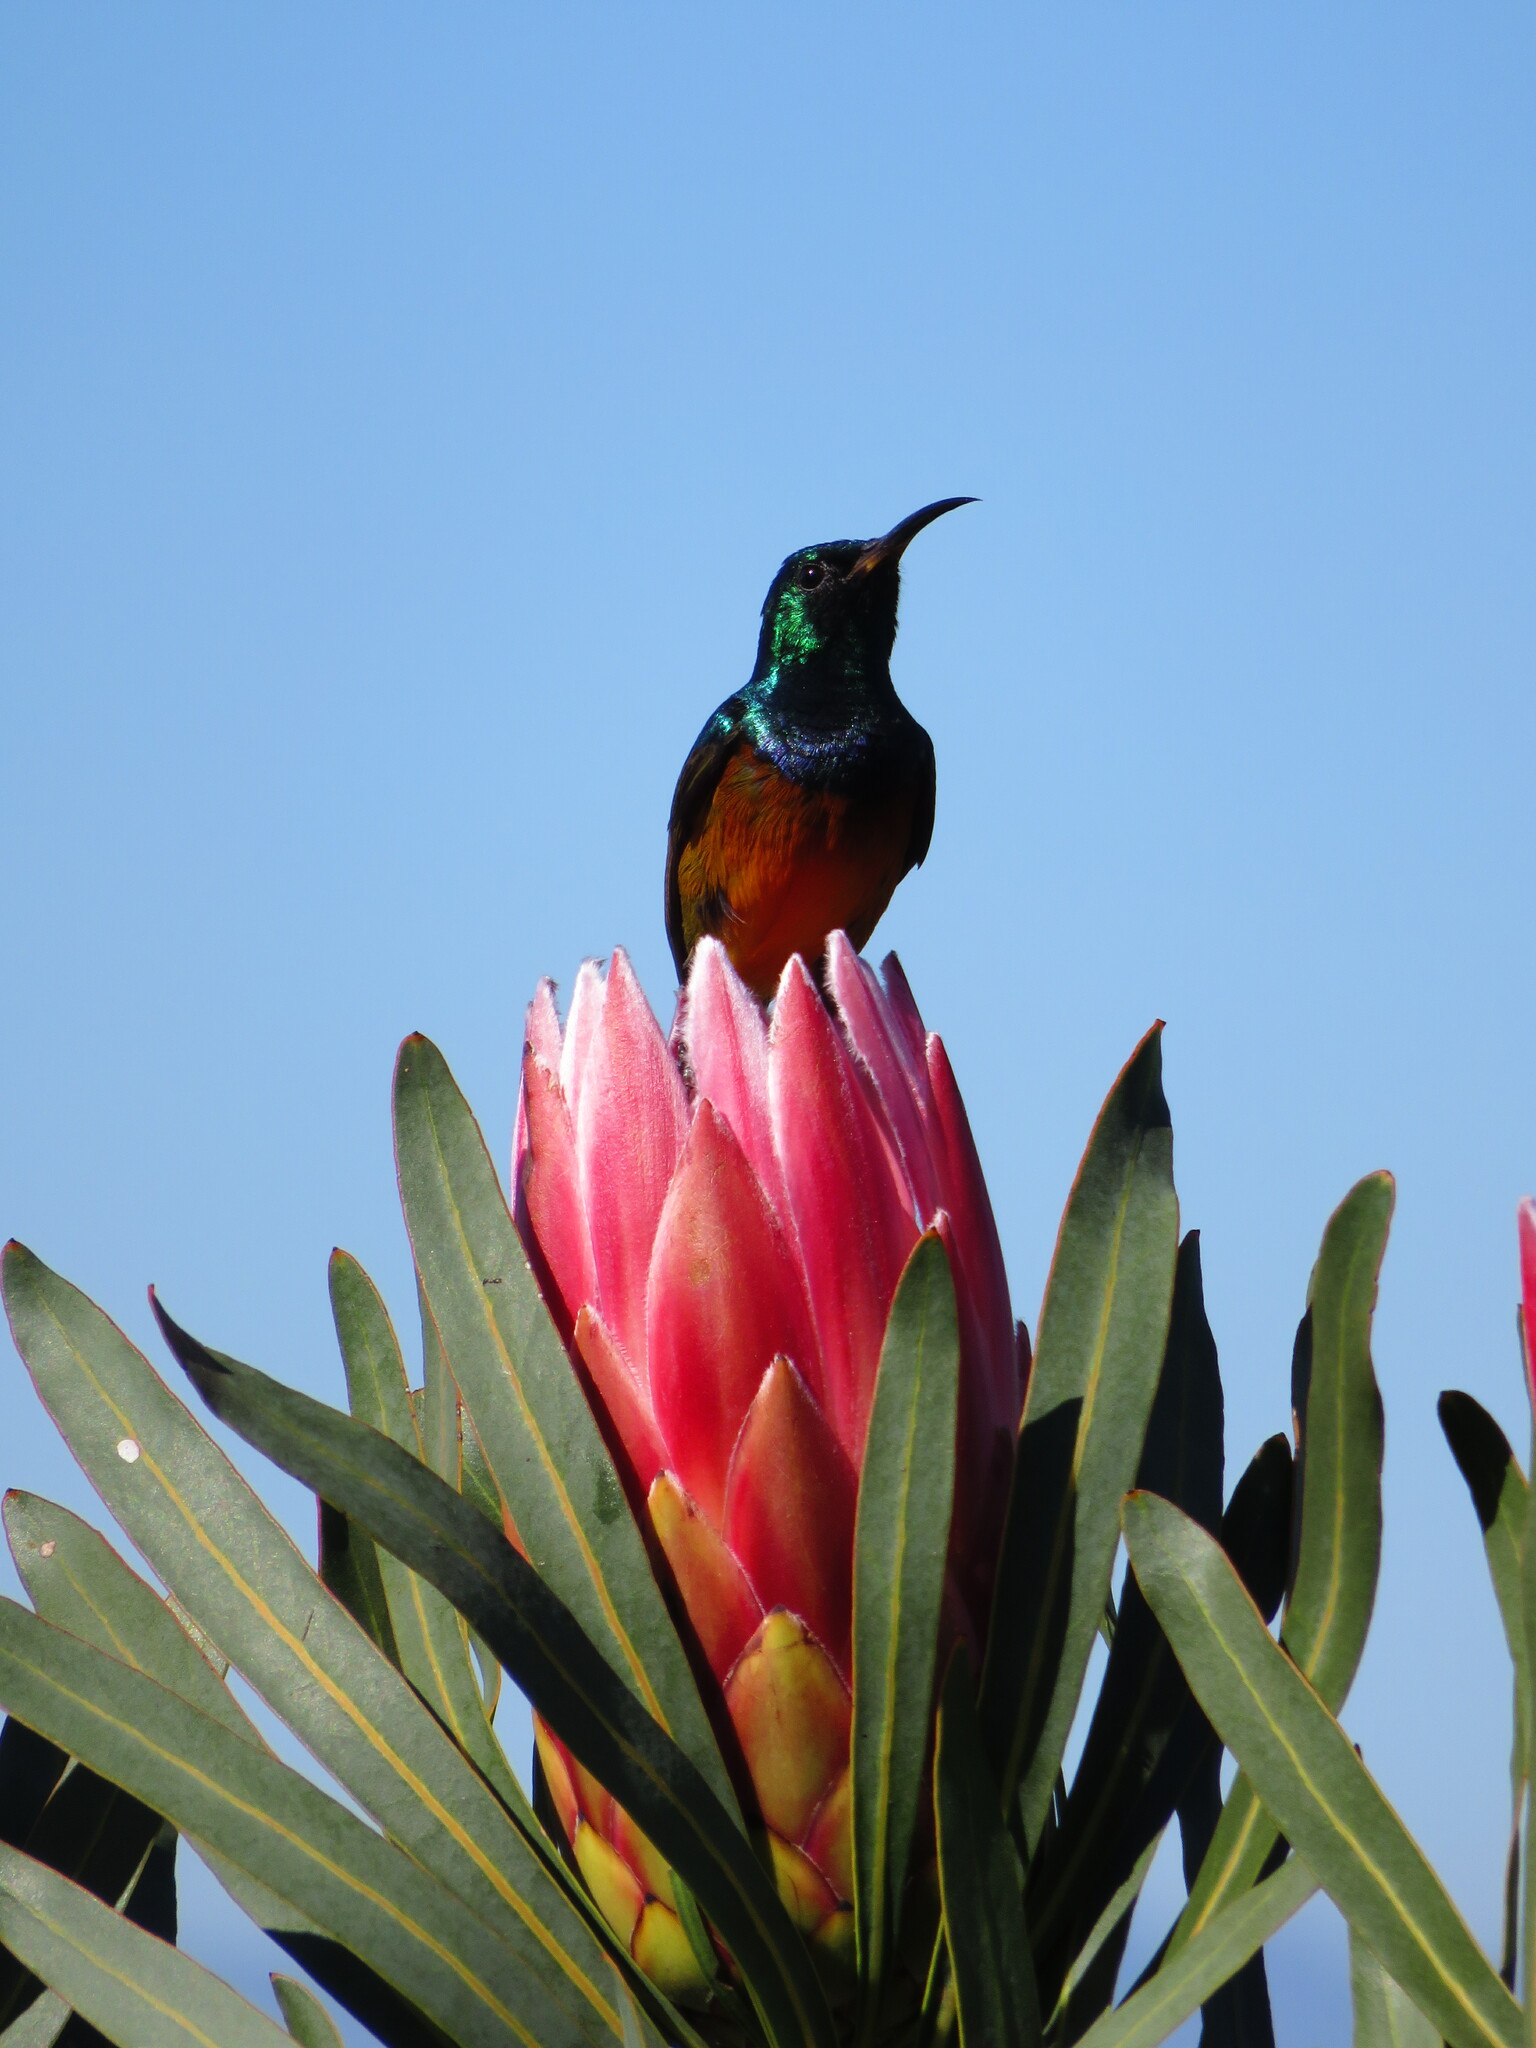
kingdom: Animalia
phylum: Chordata
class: Aves
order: Passeriformes
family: Nectariniidae
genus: Anthobaphes
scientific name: Anthobaphes violacea
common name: Orange-breasted sunbird
